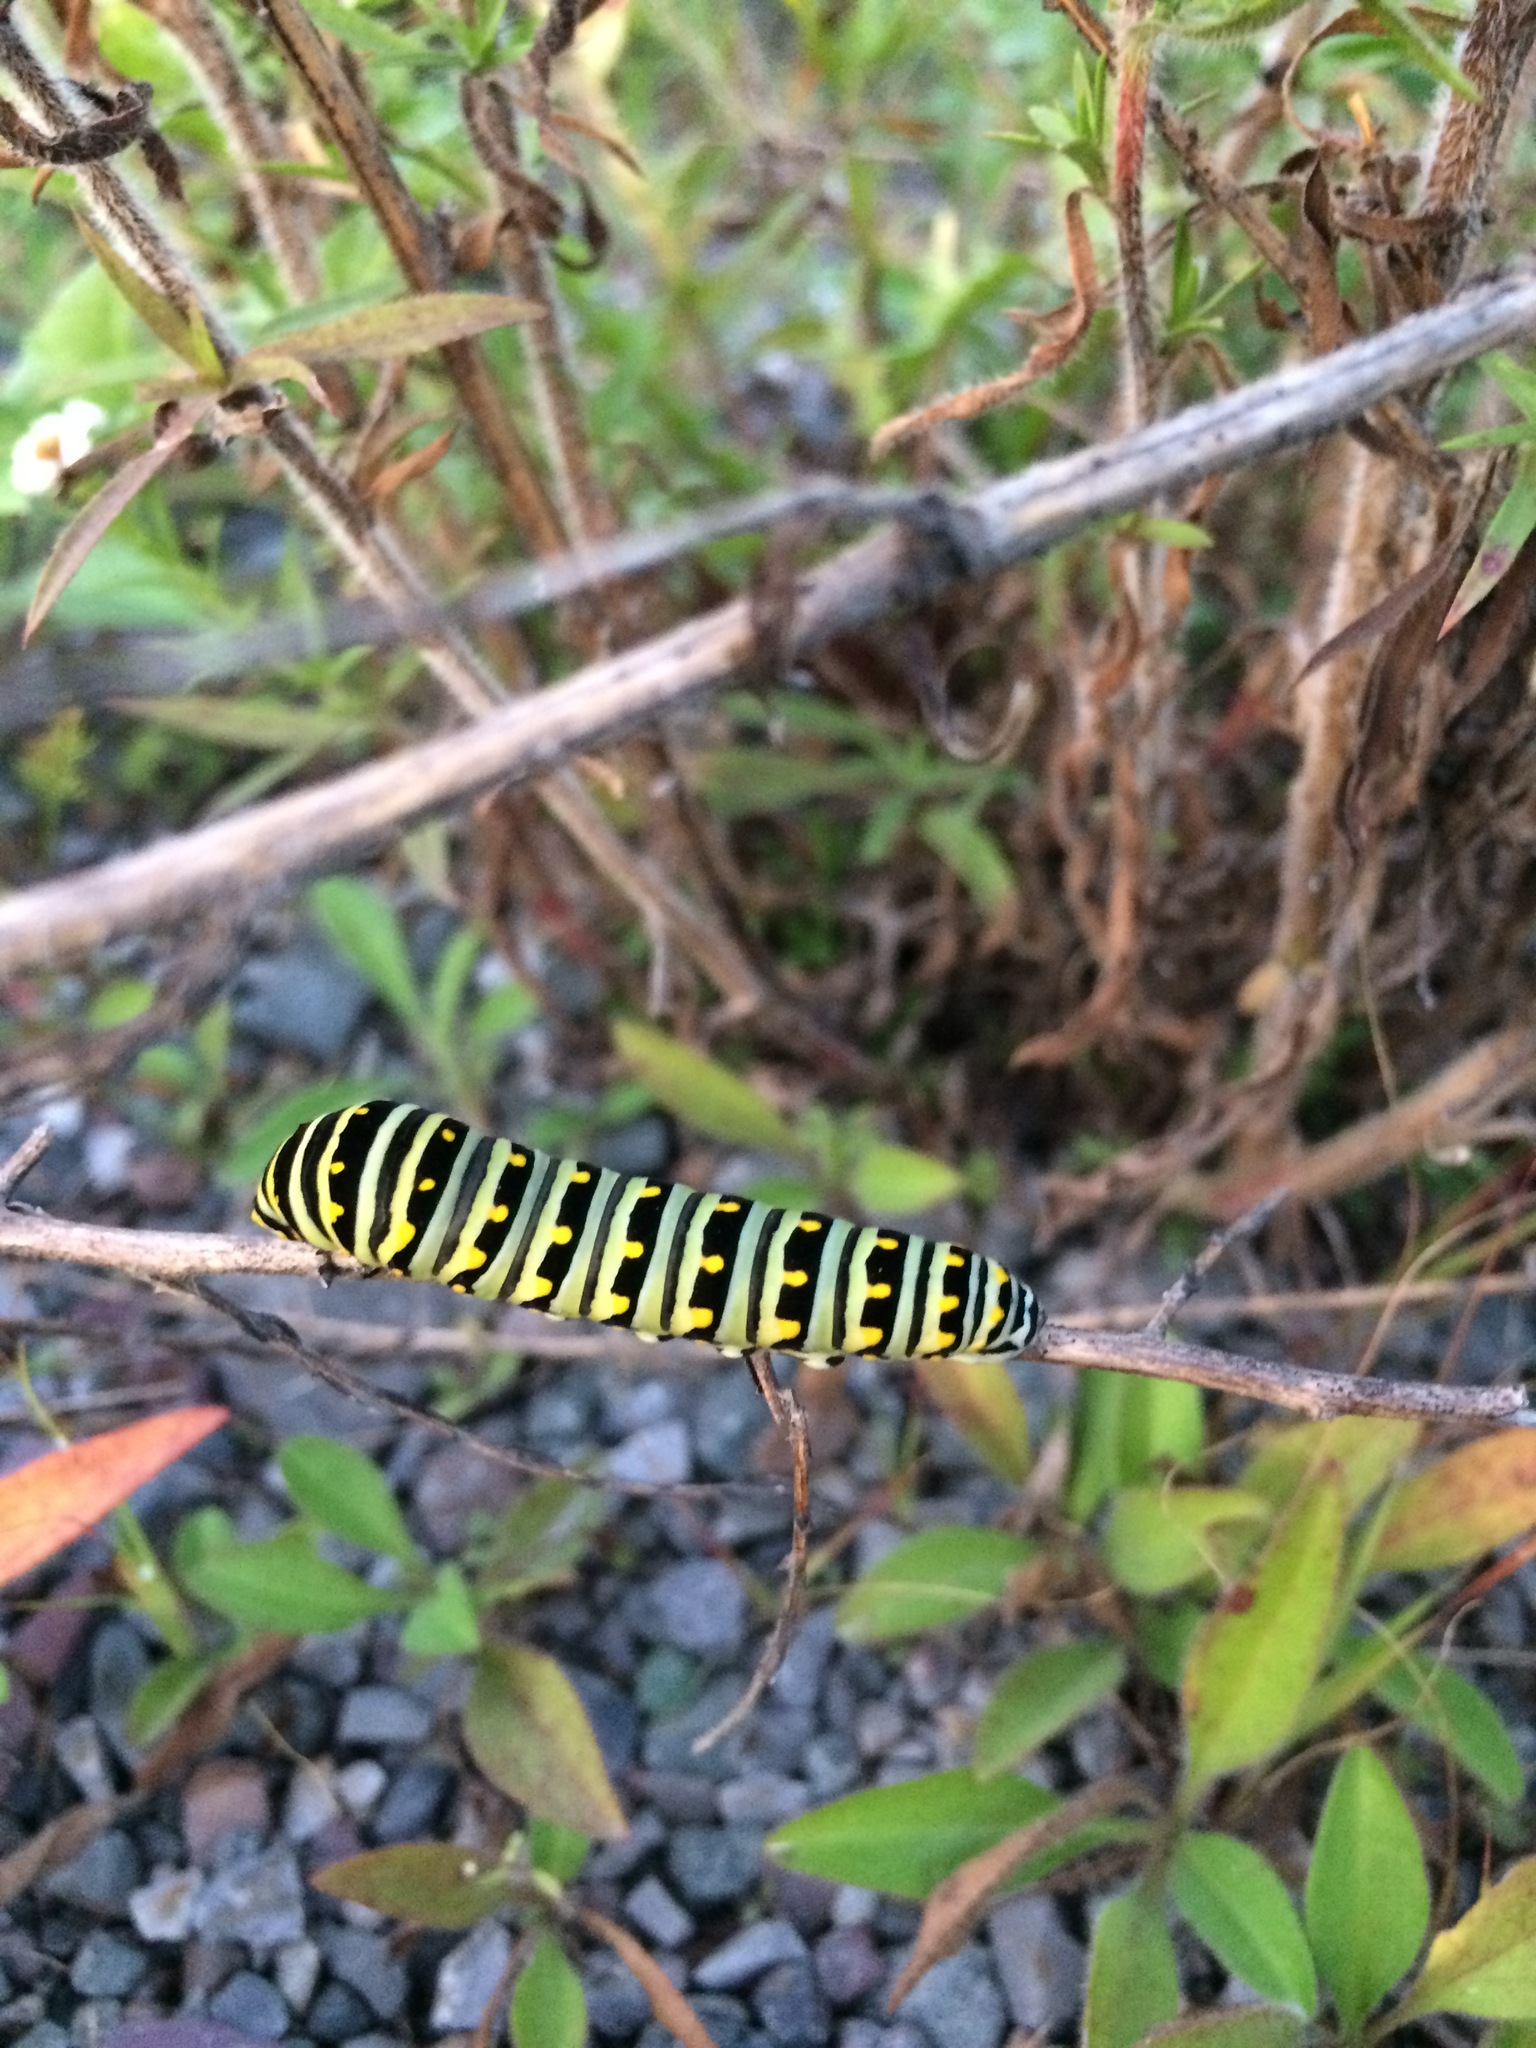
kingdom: Animalia
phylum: Arthropoda
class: Insecta
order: Lepidoptera
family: Papilionidae
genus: Papilio
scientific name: Papilio polyxenes
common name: Black swallowtail
